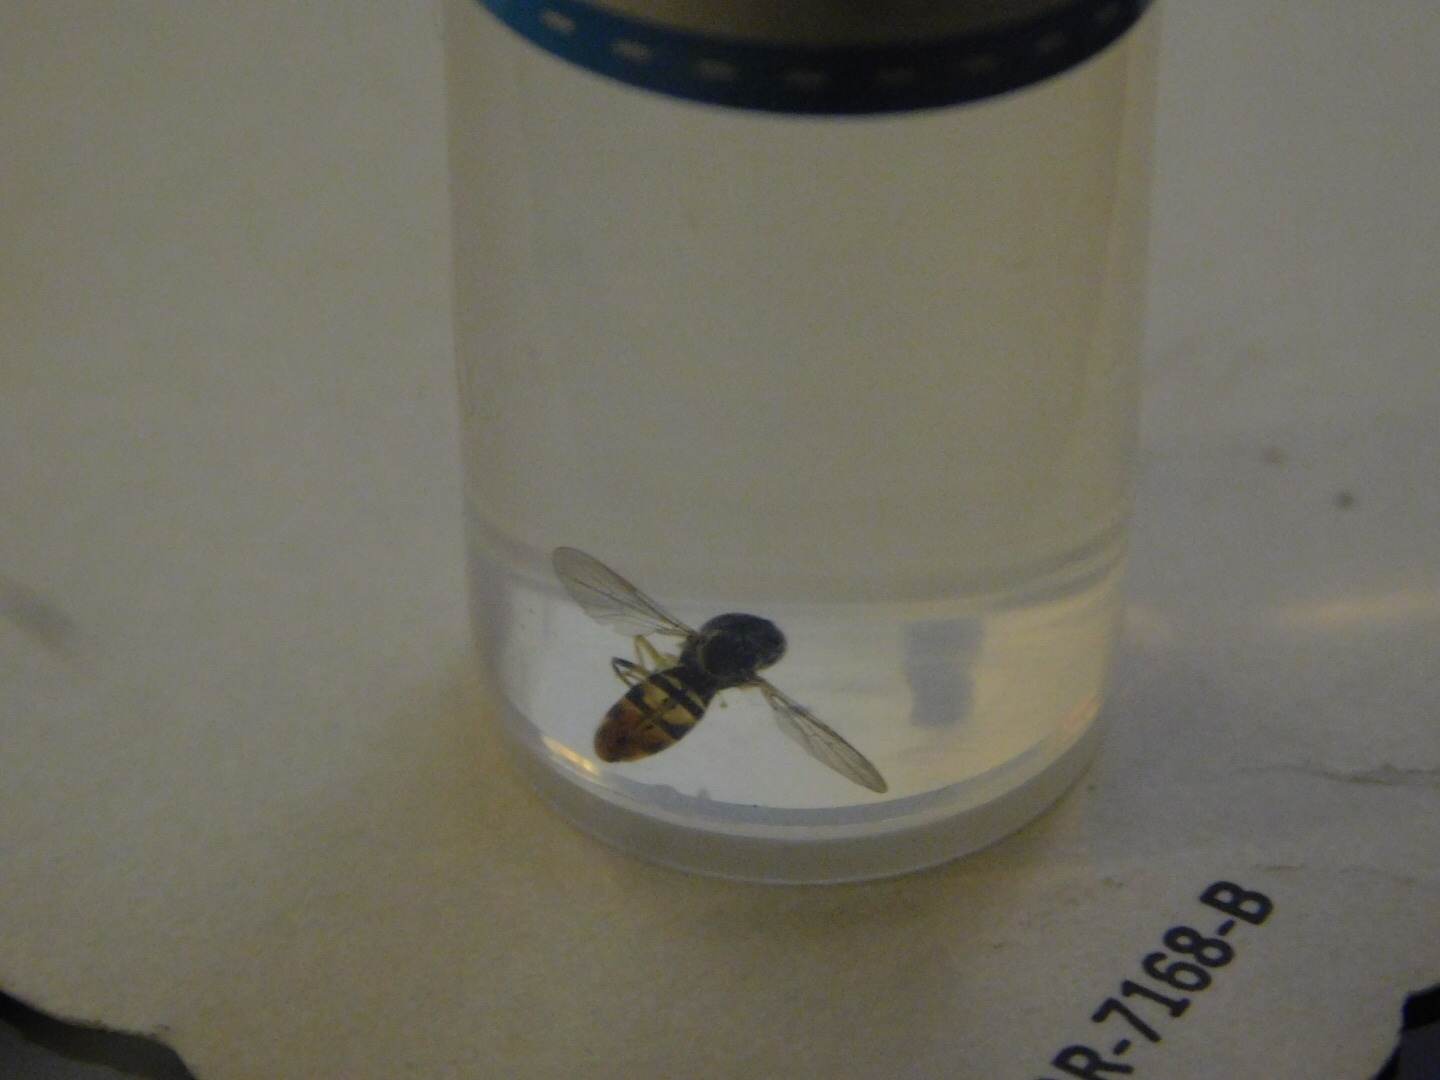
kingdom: Animalia
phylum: Arthropoda
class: Insecta
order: Diptera
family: Syrphidae
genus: Toxomerus
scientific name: Toxomerus floralis
